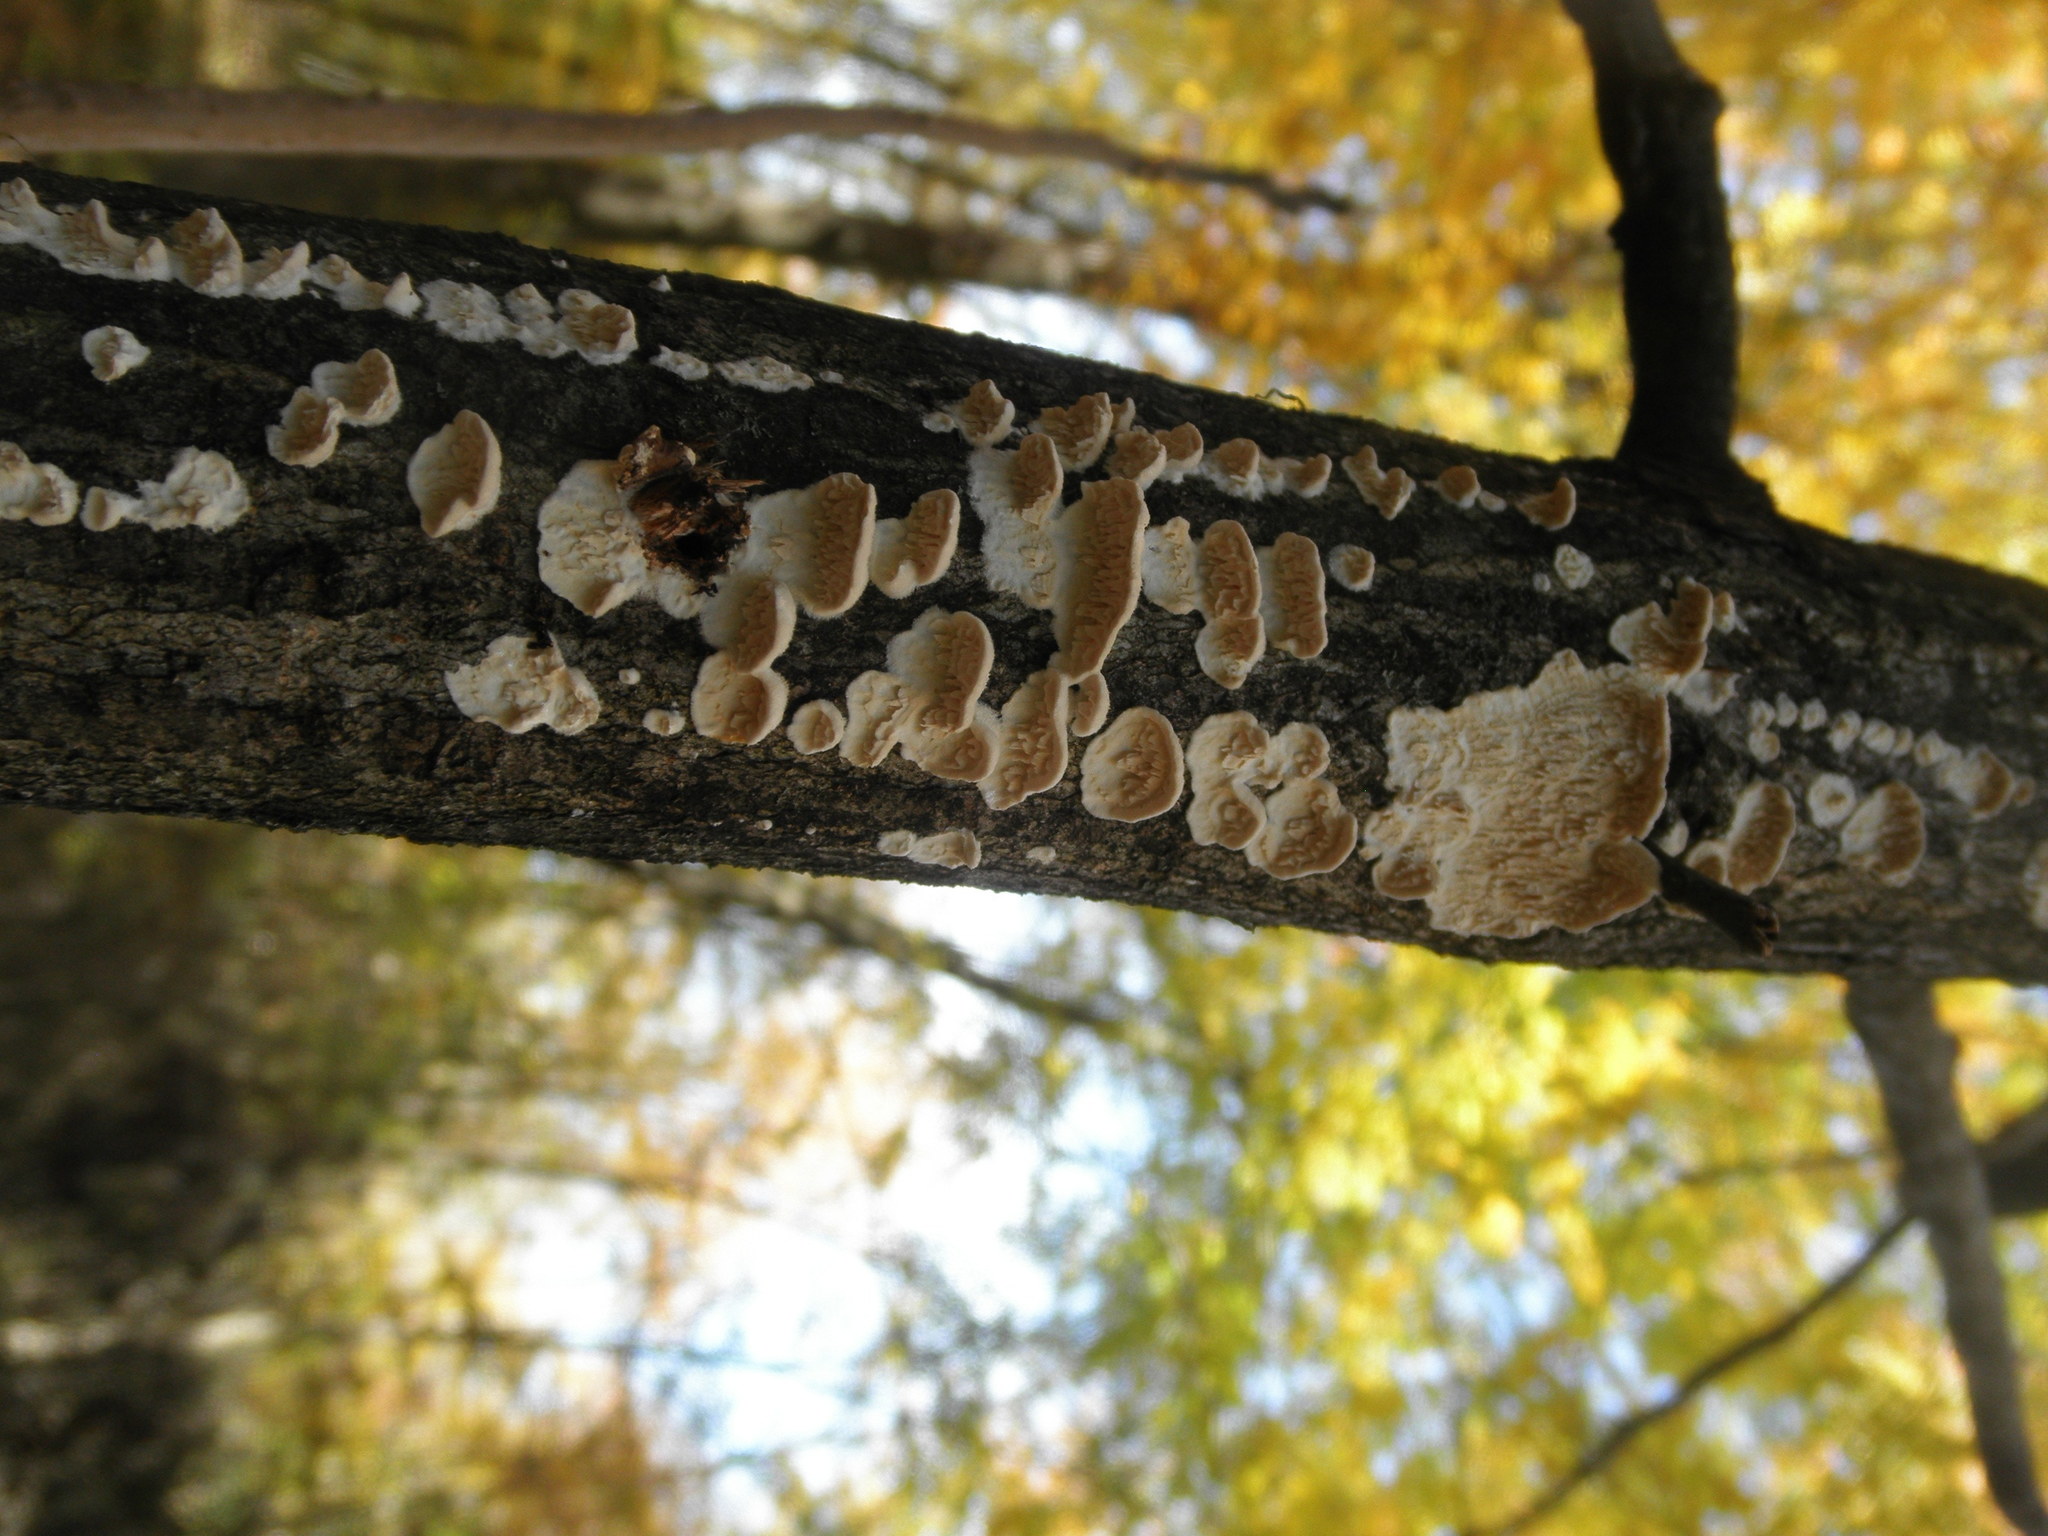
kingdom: Fungi
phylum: Basidiomycota
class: Agaricomycetes
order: Polyporales
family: Irpicaceae
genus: Irpex
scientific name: Irpex lacteus
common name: Milk-white toothed polypore
